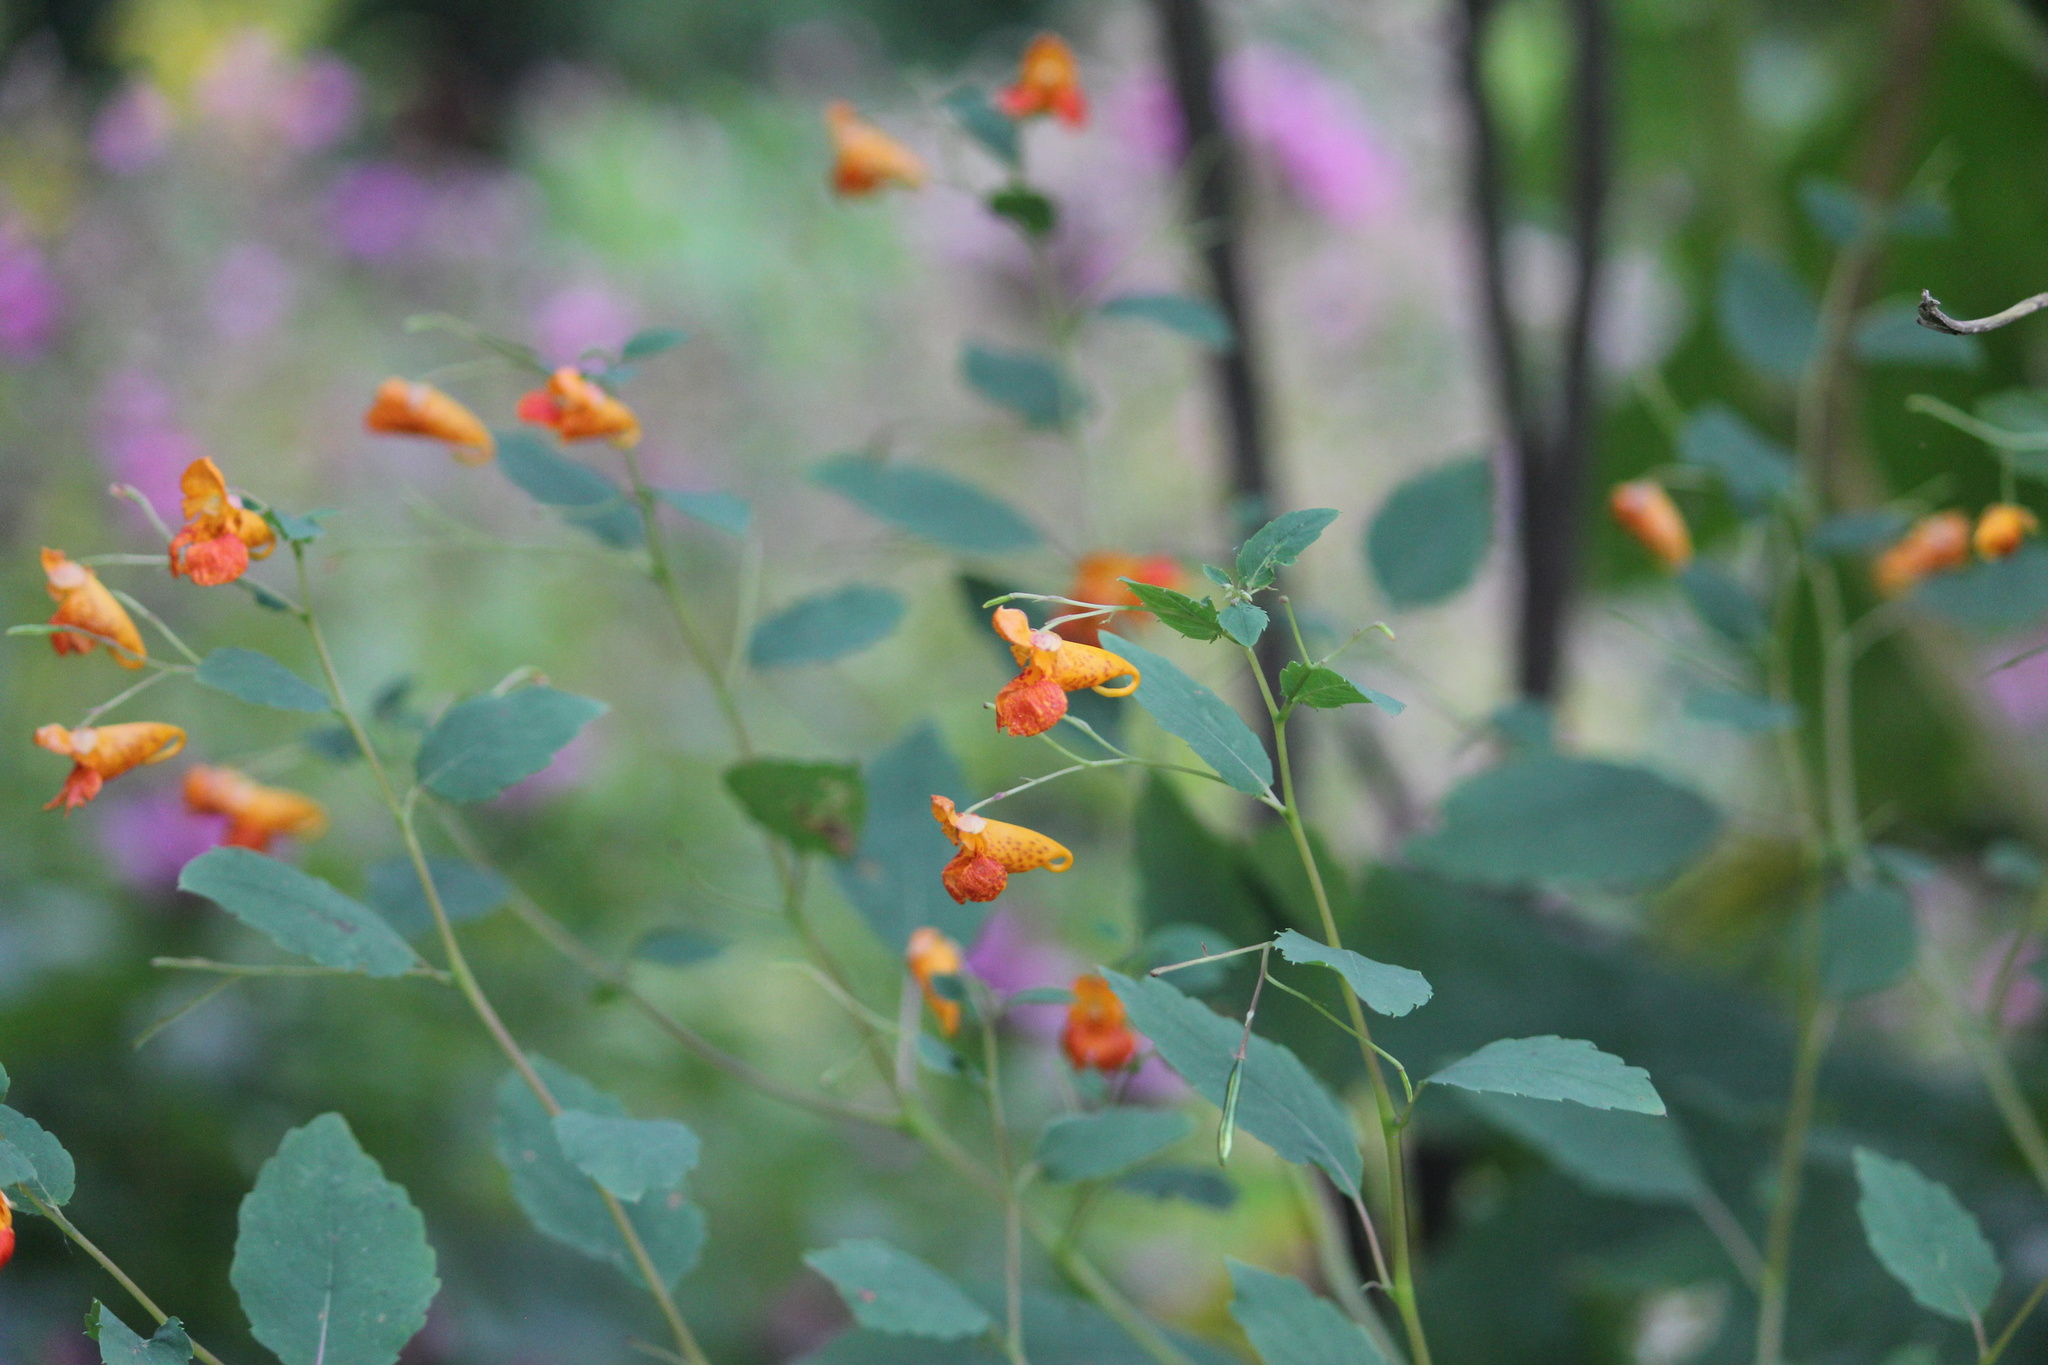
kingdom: Plantae
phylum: Tracheophyta
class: Magnoliopsida
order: Ericales
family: Balsaminaceae
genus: Impatiens
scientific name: Impatiens capensis
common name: Orange balsam
